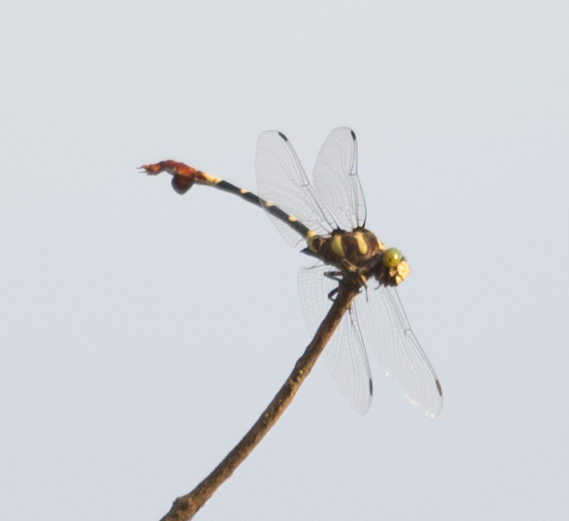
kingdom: Animalia
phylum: Arthropoda
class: Insecta
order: Odonata
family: Gomphidae
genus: Phyllogomphus
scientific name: Phyllogomphus selysi
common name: Bold leaftail
